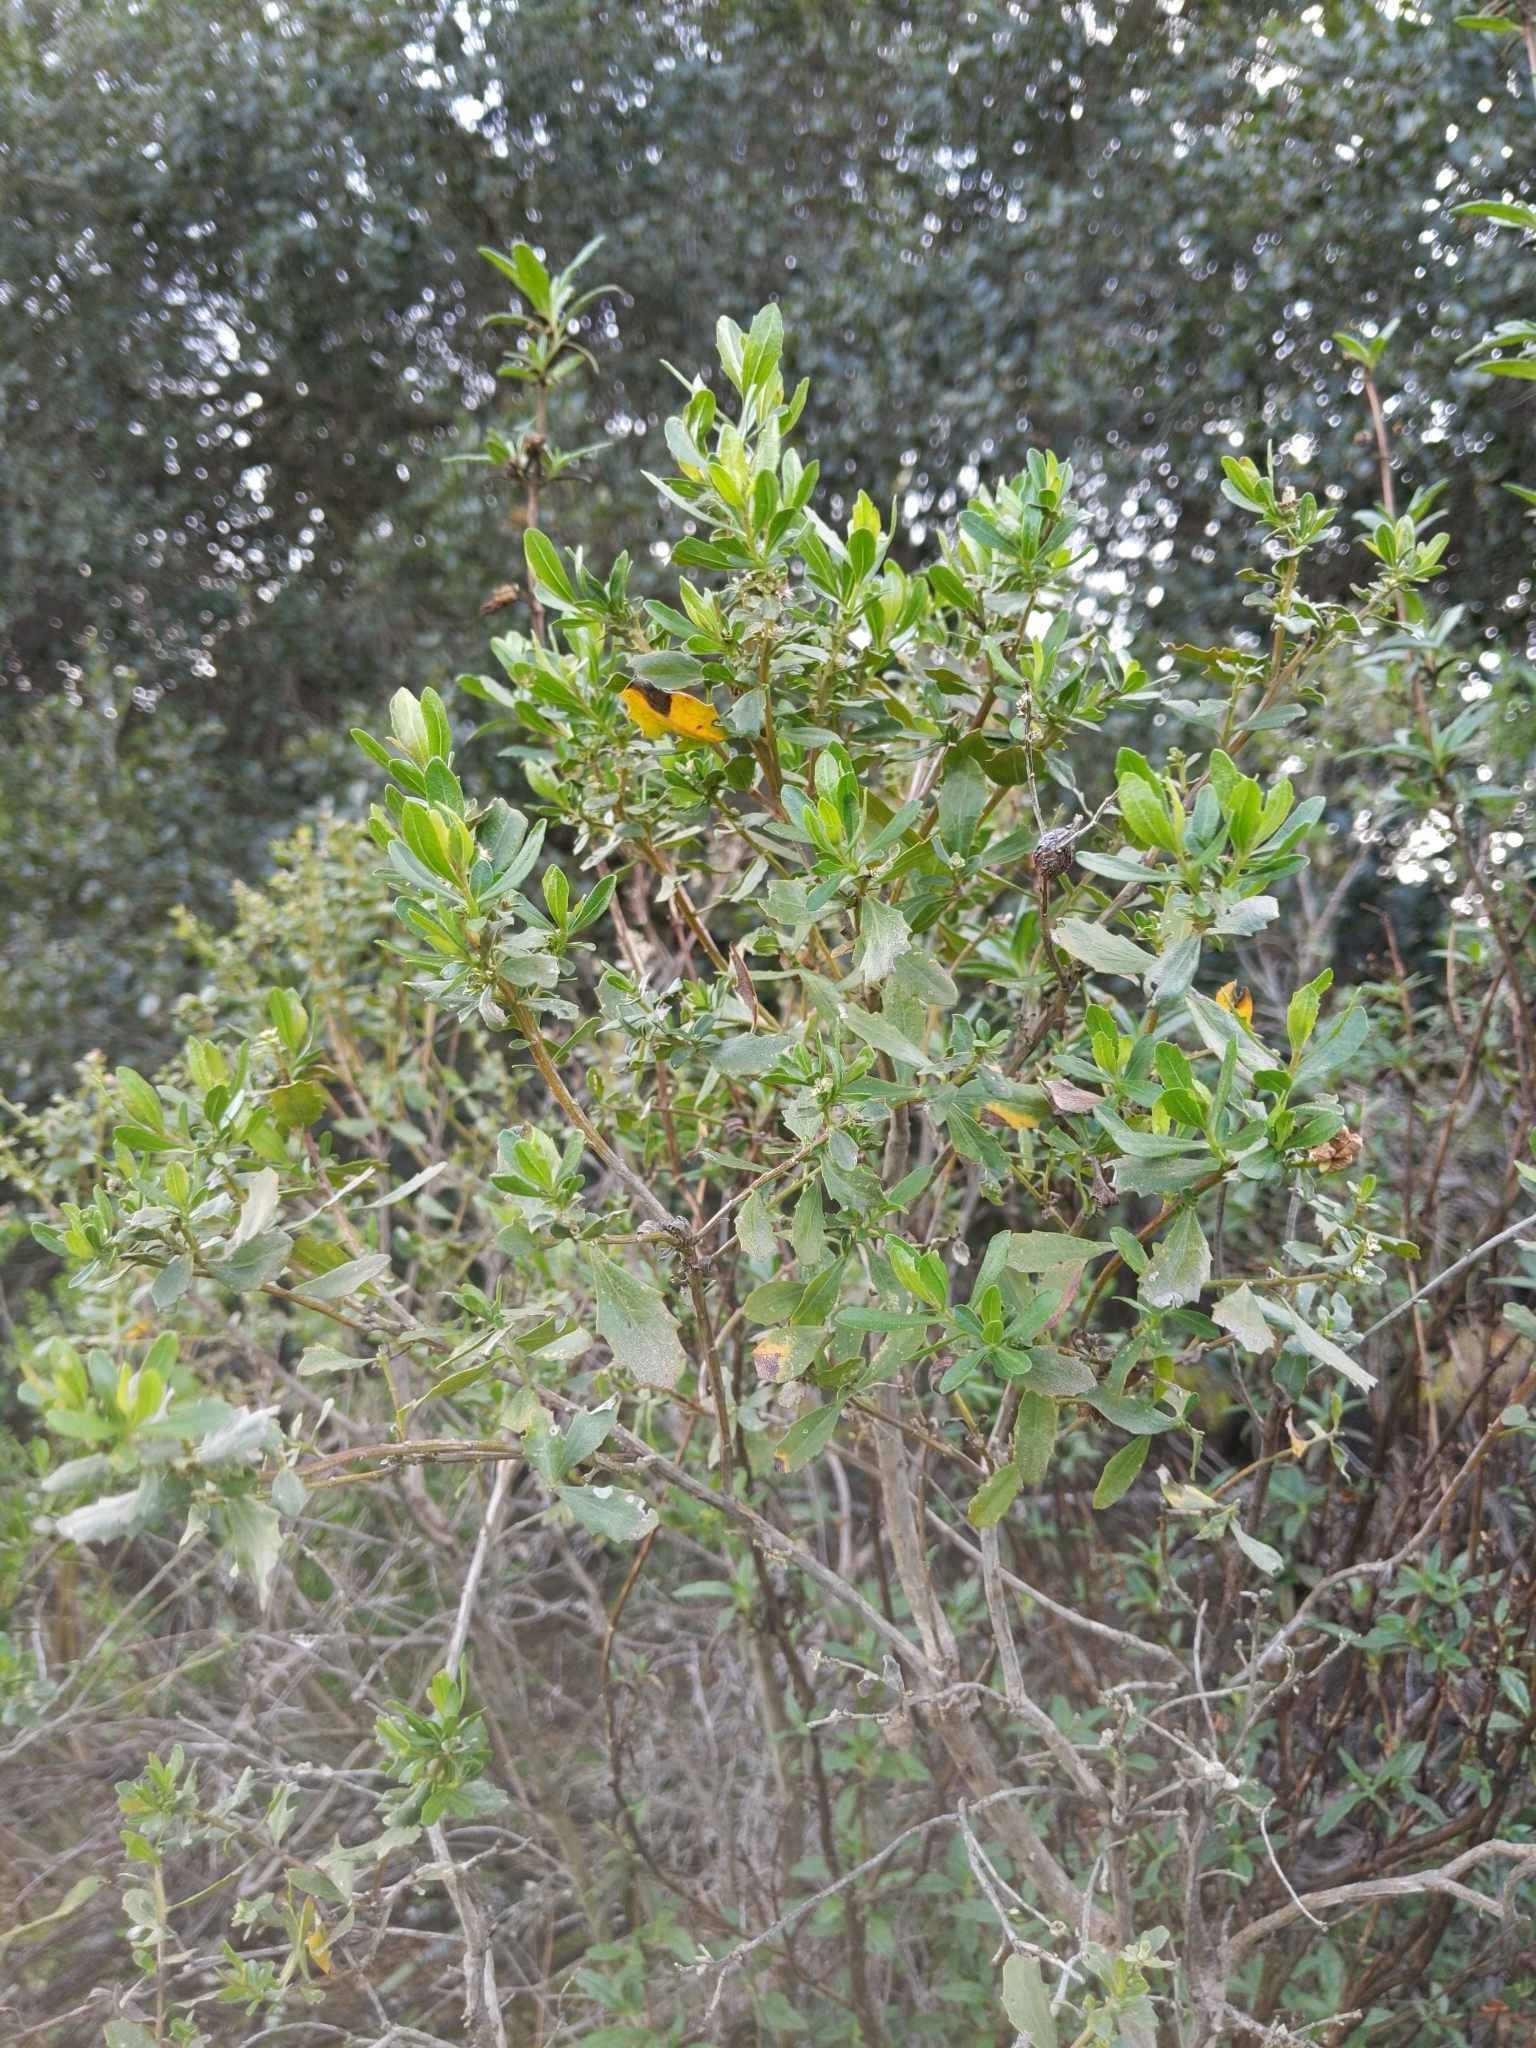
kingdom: Plantae
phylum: Tracheophyta
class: Magnoliopsida
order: Asterales
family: Asteraceae
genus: Baccharis
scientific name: Baccharis pilularis
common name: Coyotebrush
